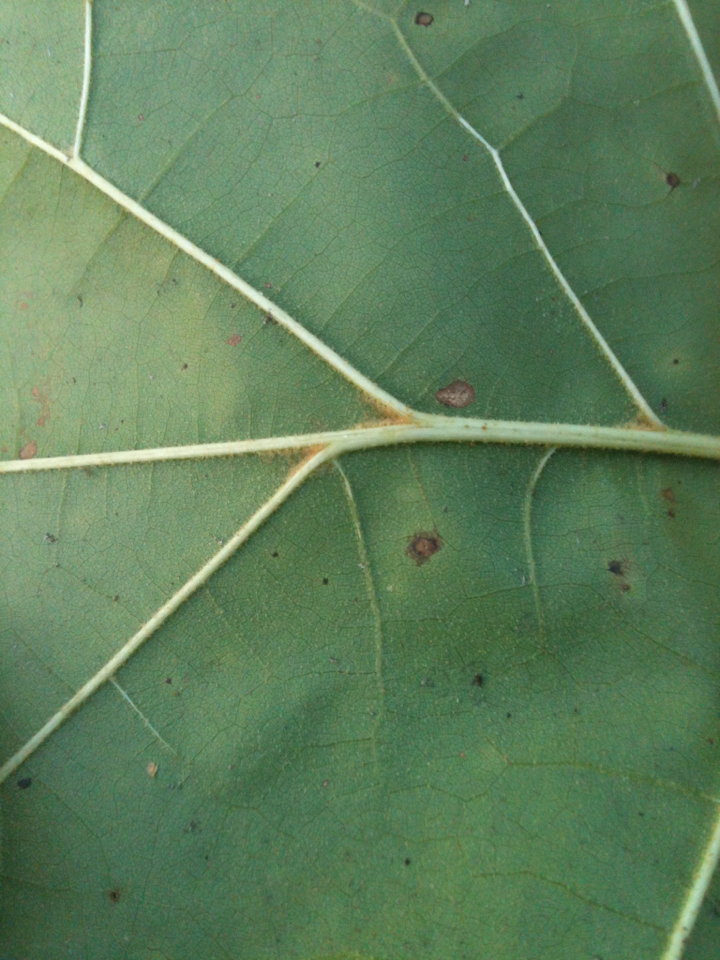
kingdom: Plantae
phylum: Tracheophyta
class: Magnoliopsida
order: Fagales
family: Fagaceae
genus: Quercus
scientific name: Quercus velutina
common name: Black oak
